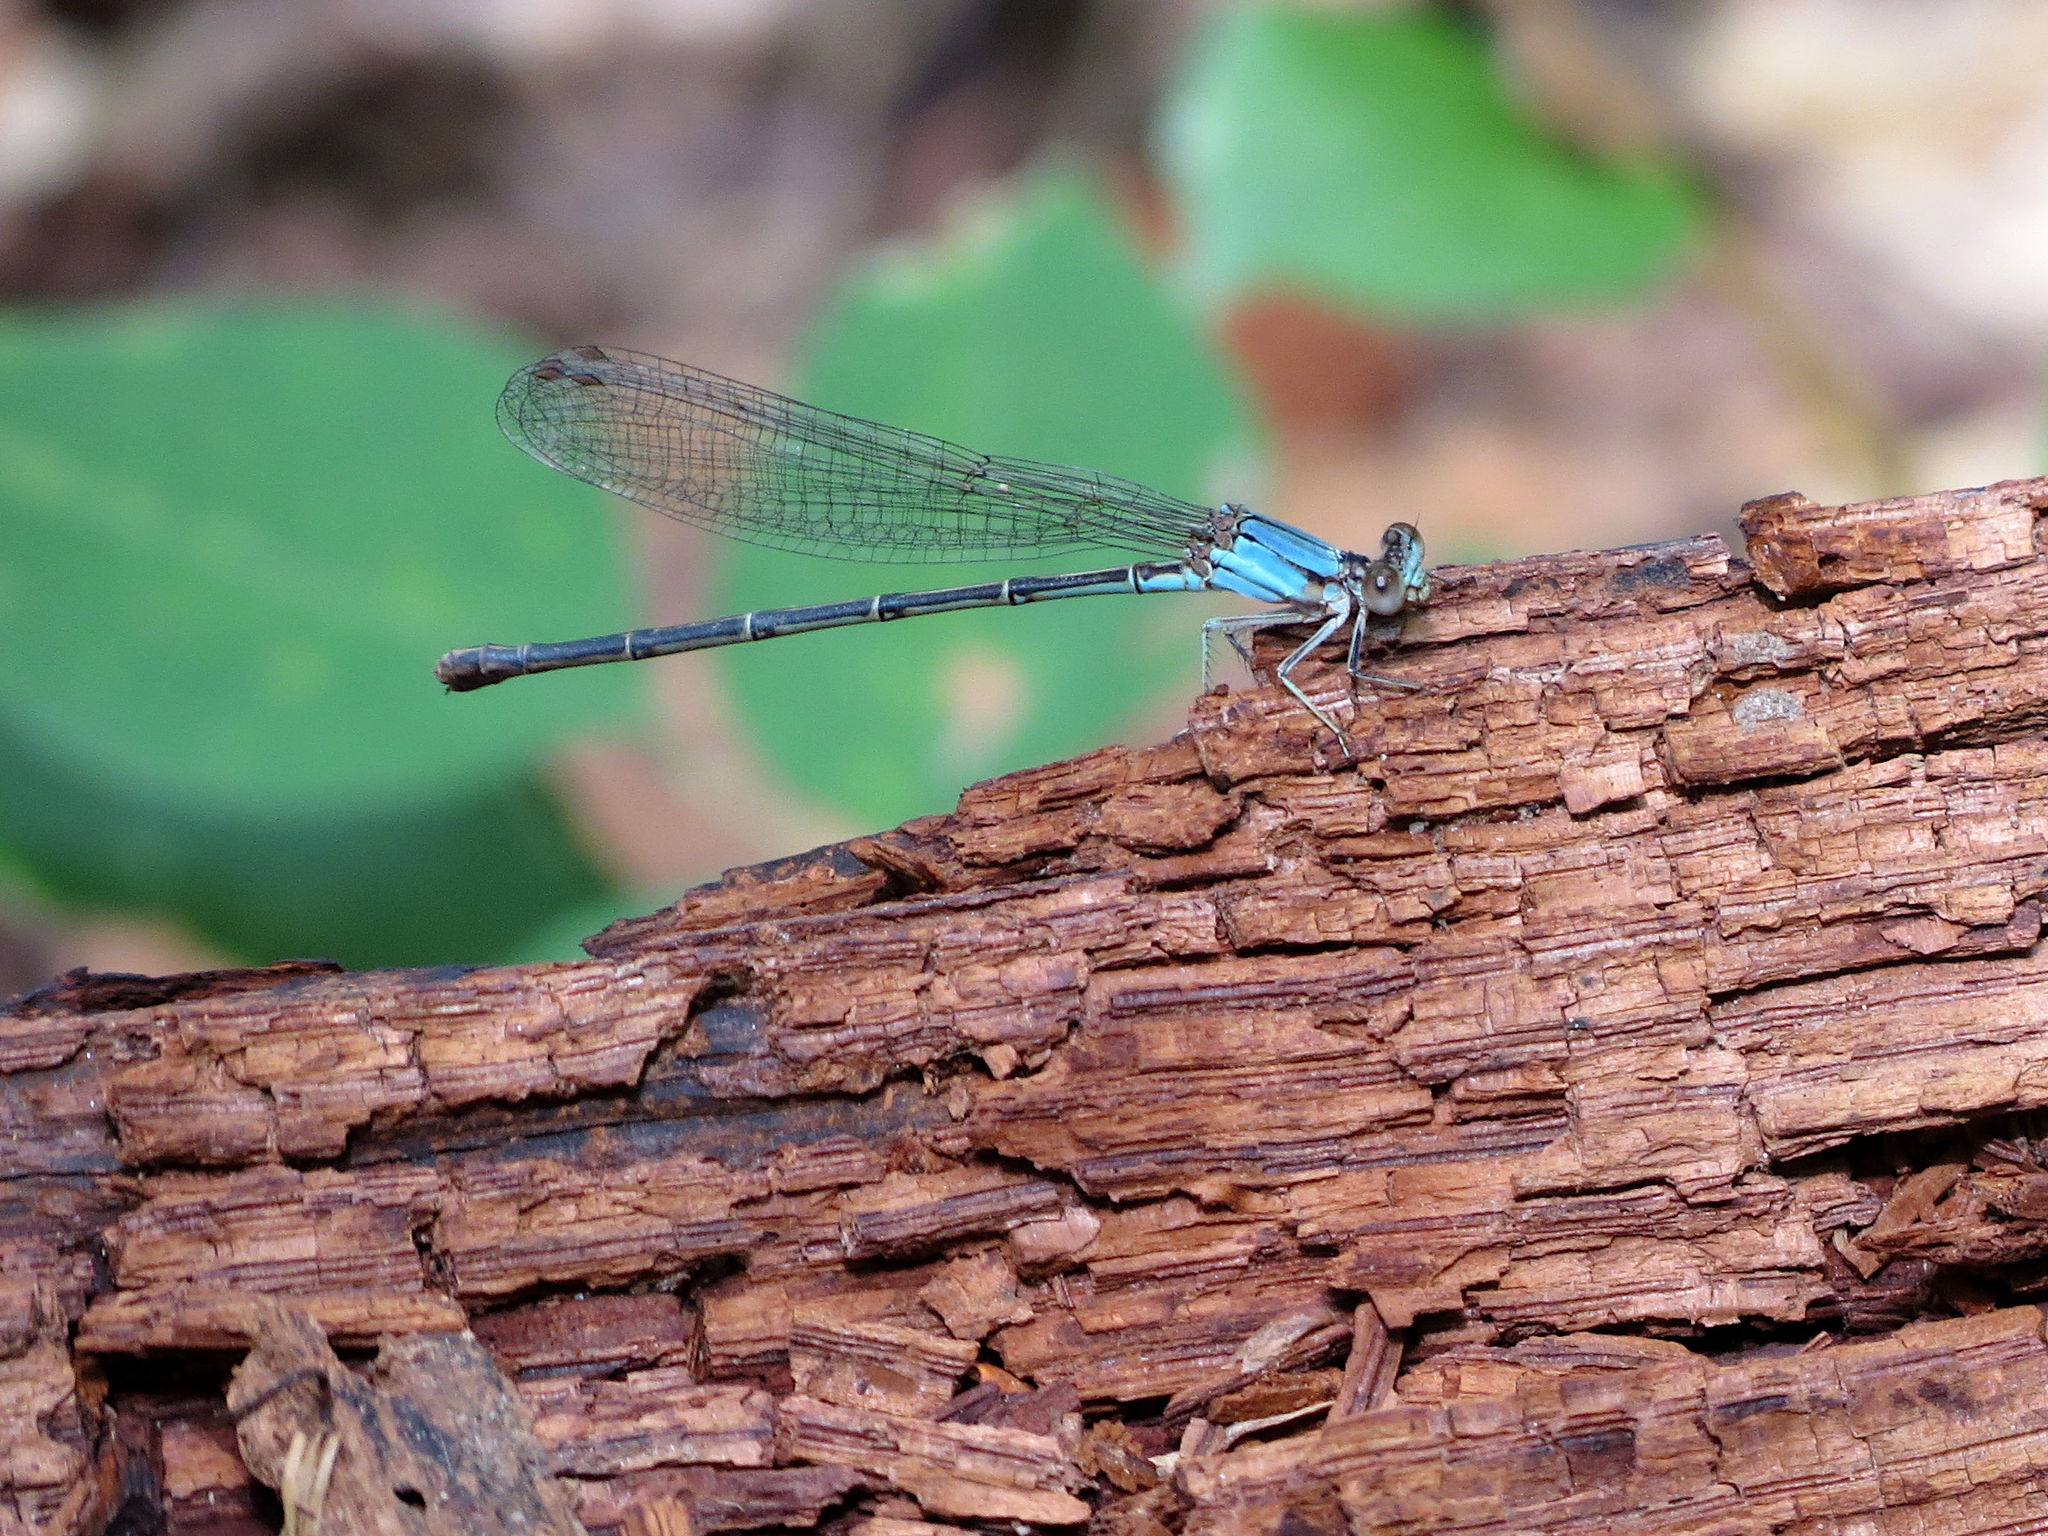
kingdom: Animalia
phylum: Arthropoda
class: Insecta
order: Odonata
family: Coenagrionidae
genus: Argia
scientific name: Argia apicalis
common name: Blue-fronted dancer
